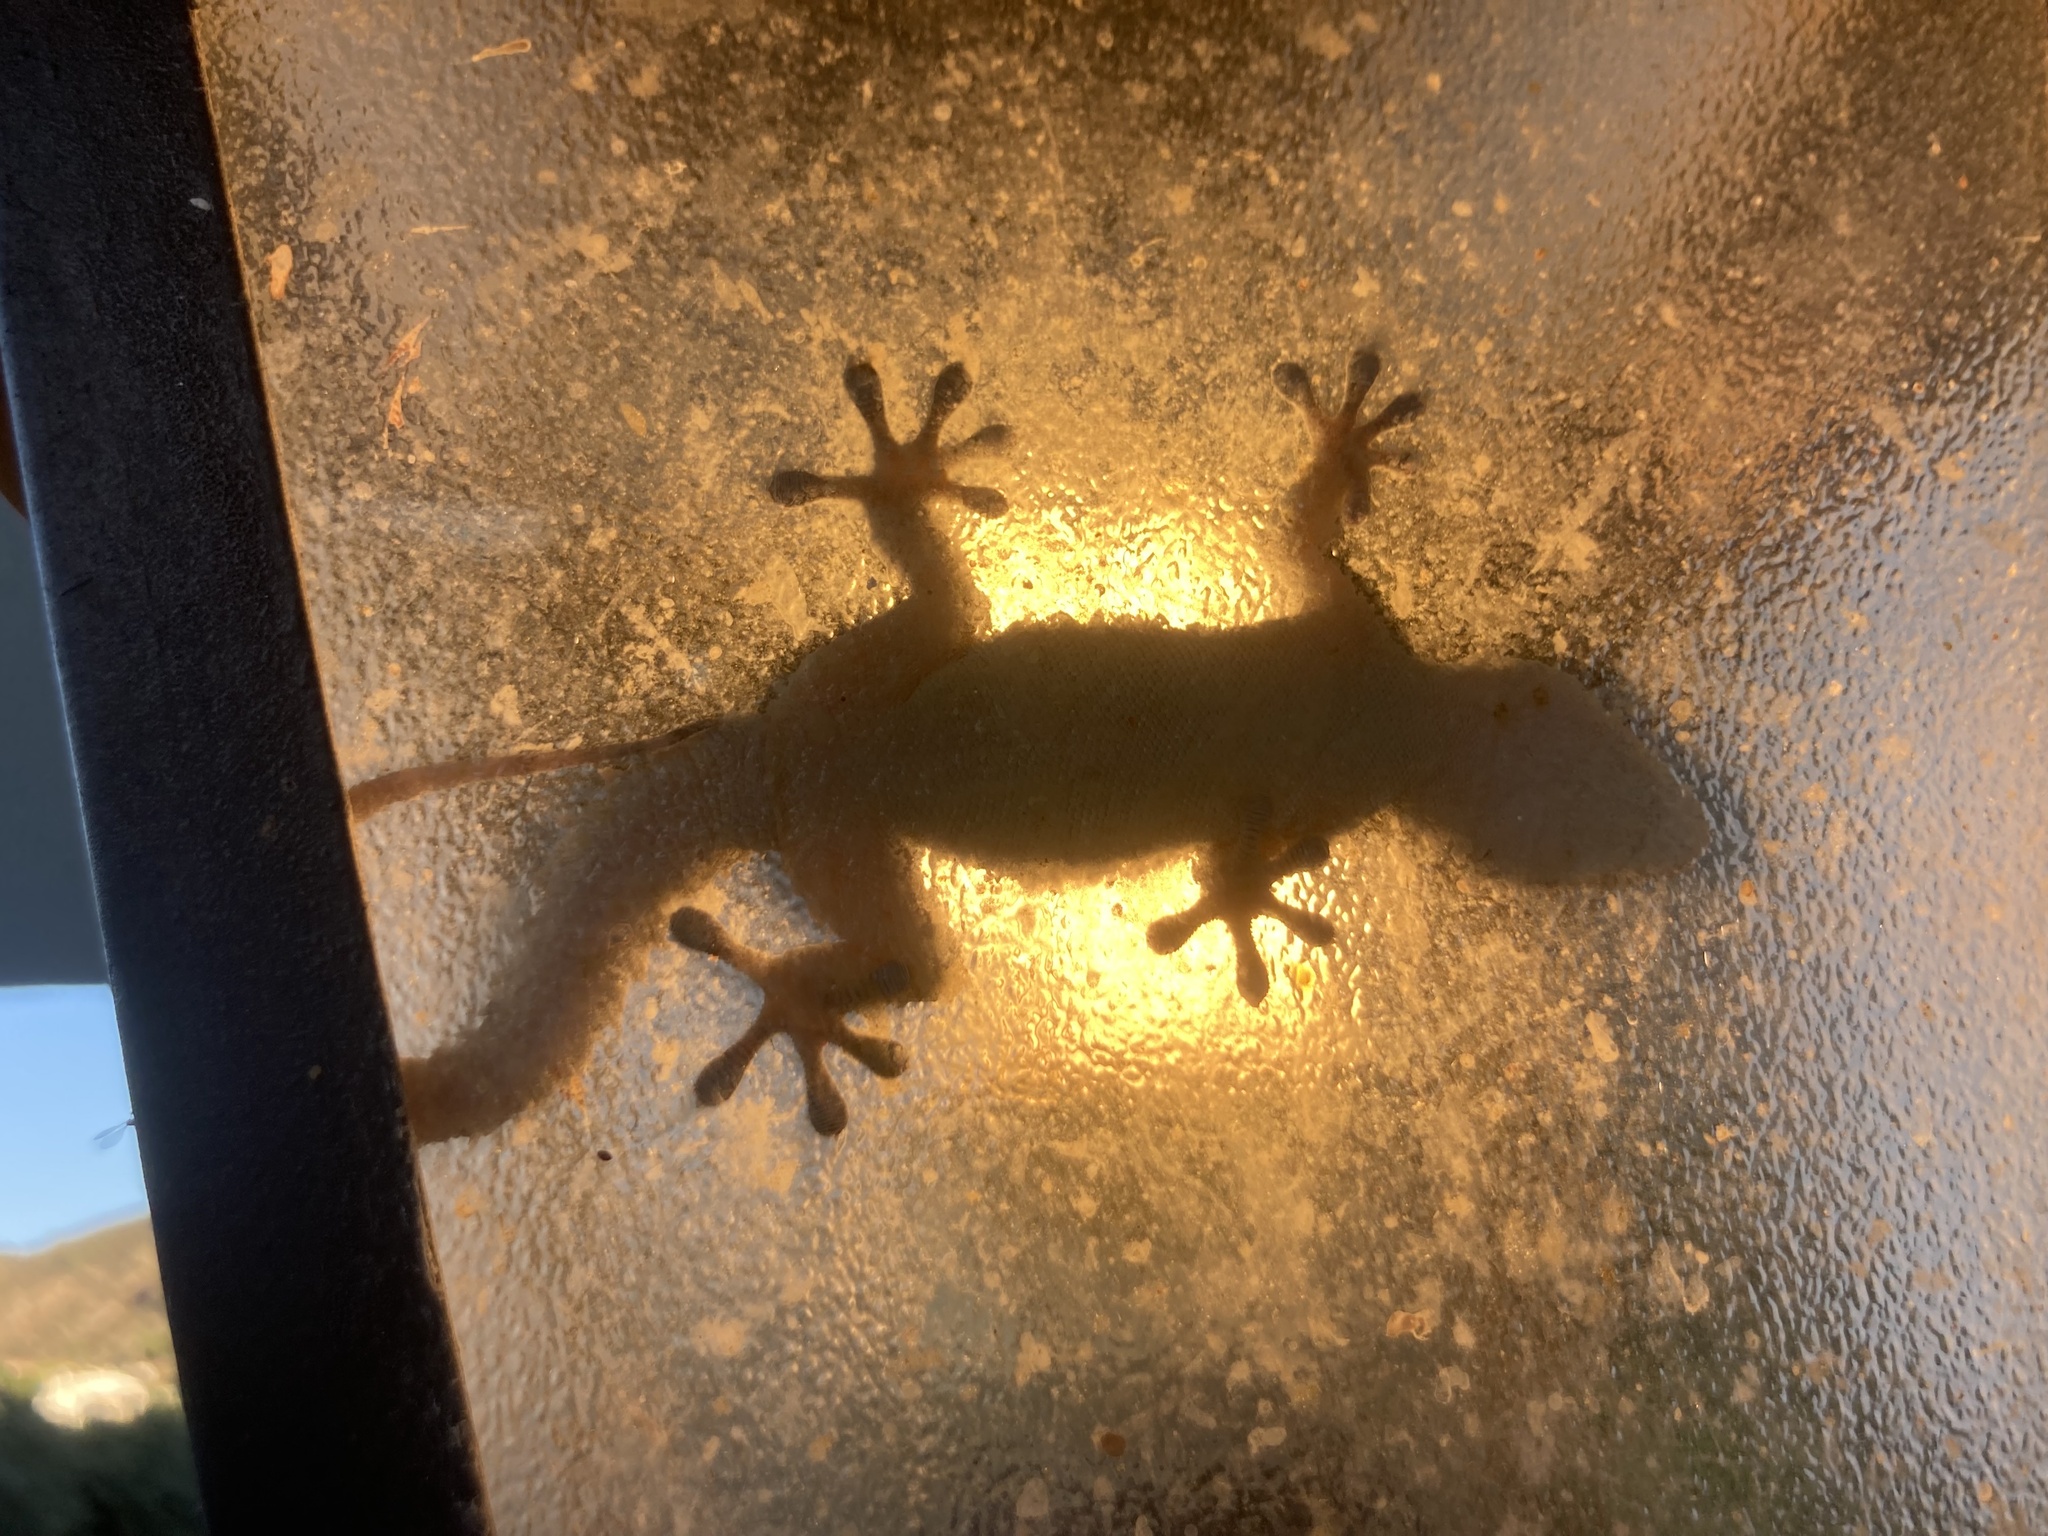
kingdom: Animalia
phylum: Chordata
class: Squamata
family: Phyllodactylidae
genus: Tarentola
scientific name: Tarentola mauritanica
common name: Moorish gecko
